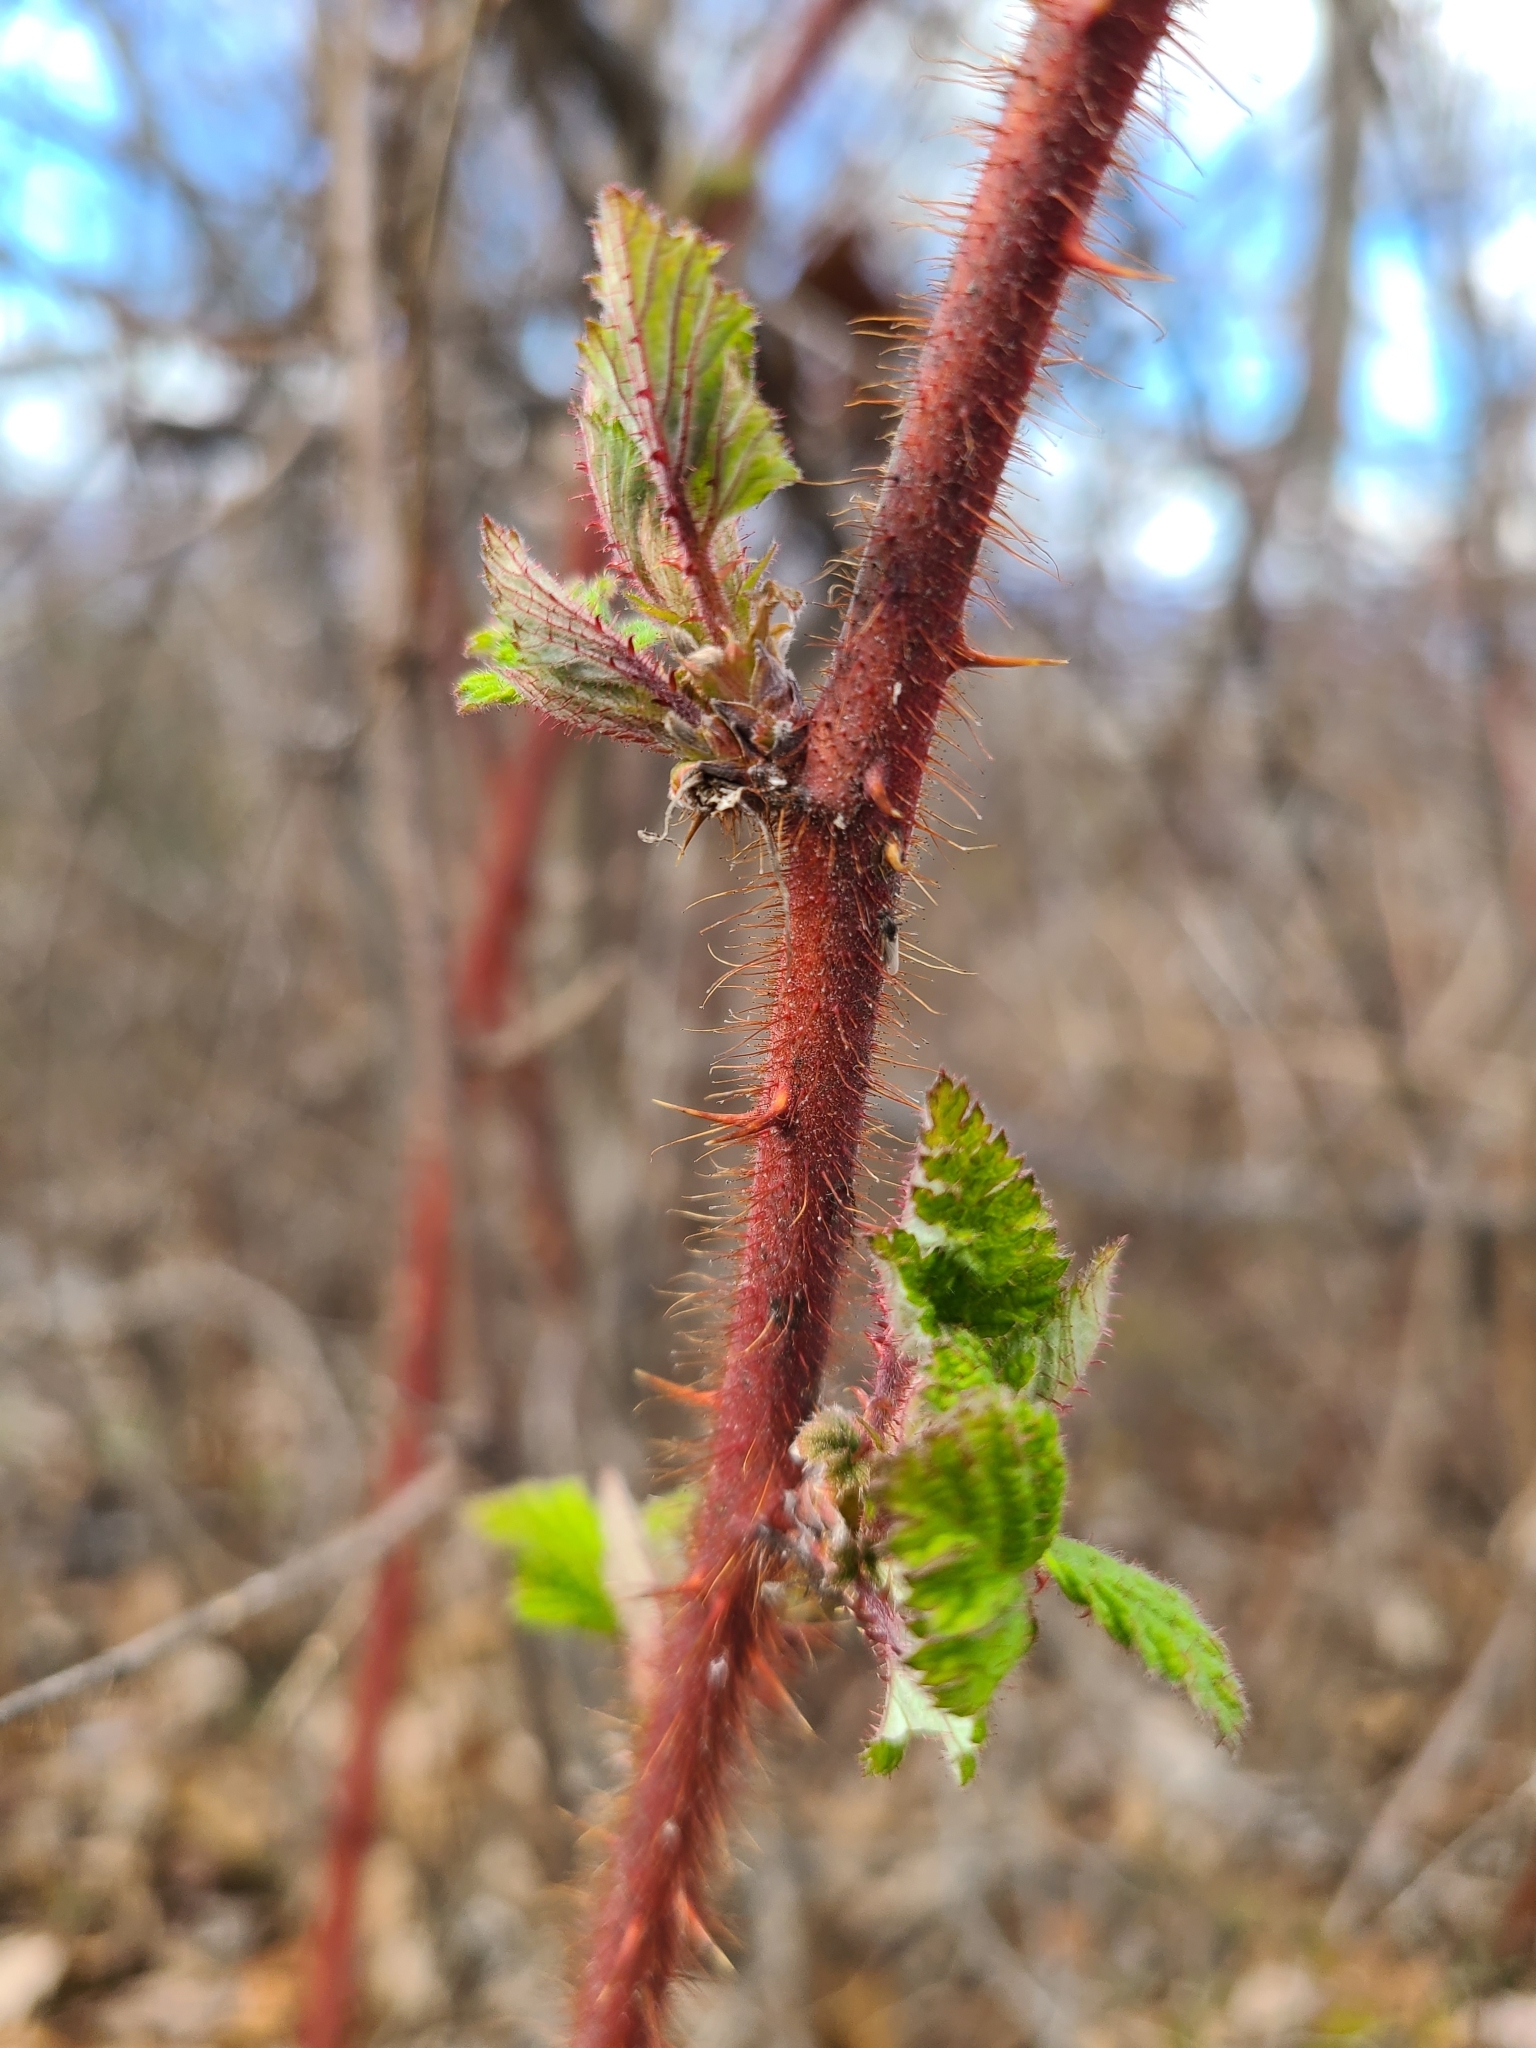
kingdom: Plantae
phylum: Tracheophyta
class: Magnoliopsida
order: Rosales
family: Rosaceae
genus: Rubus
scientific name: Rubus phoenicolasius
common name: Japanese wineberry
